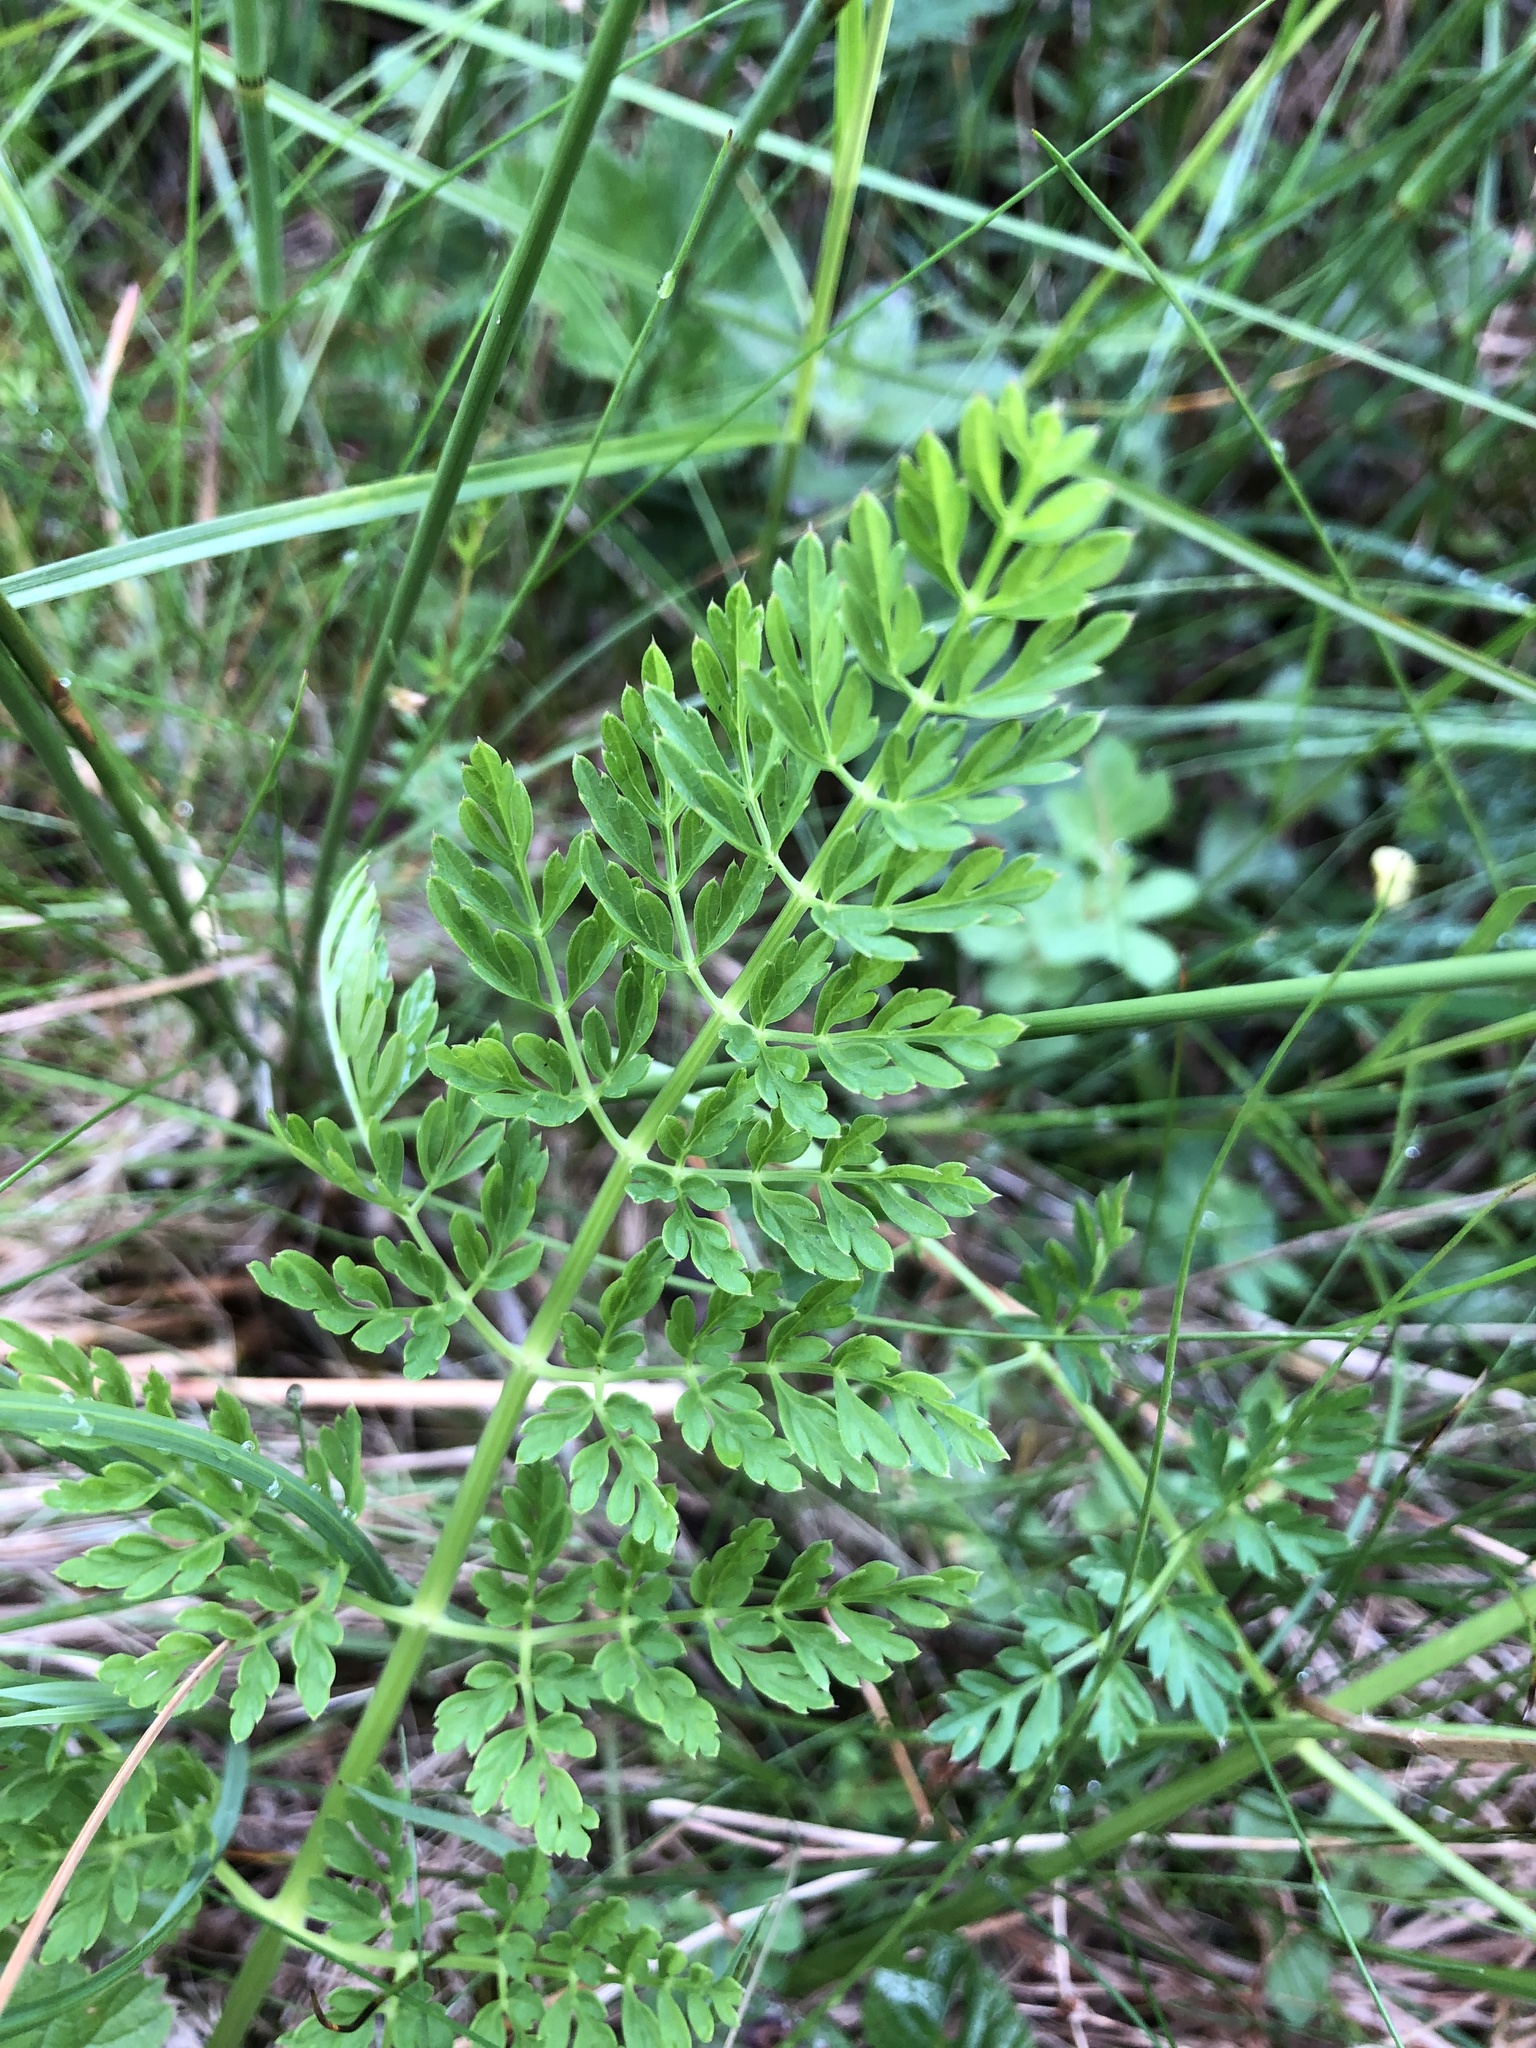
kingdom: Plantae
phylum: Tracheophyta
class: Magnoliopsida
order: Apiales
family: Apiaceae
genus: Selinum
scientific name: Selinum carvifolia
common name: Cambridge milk-parsley
